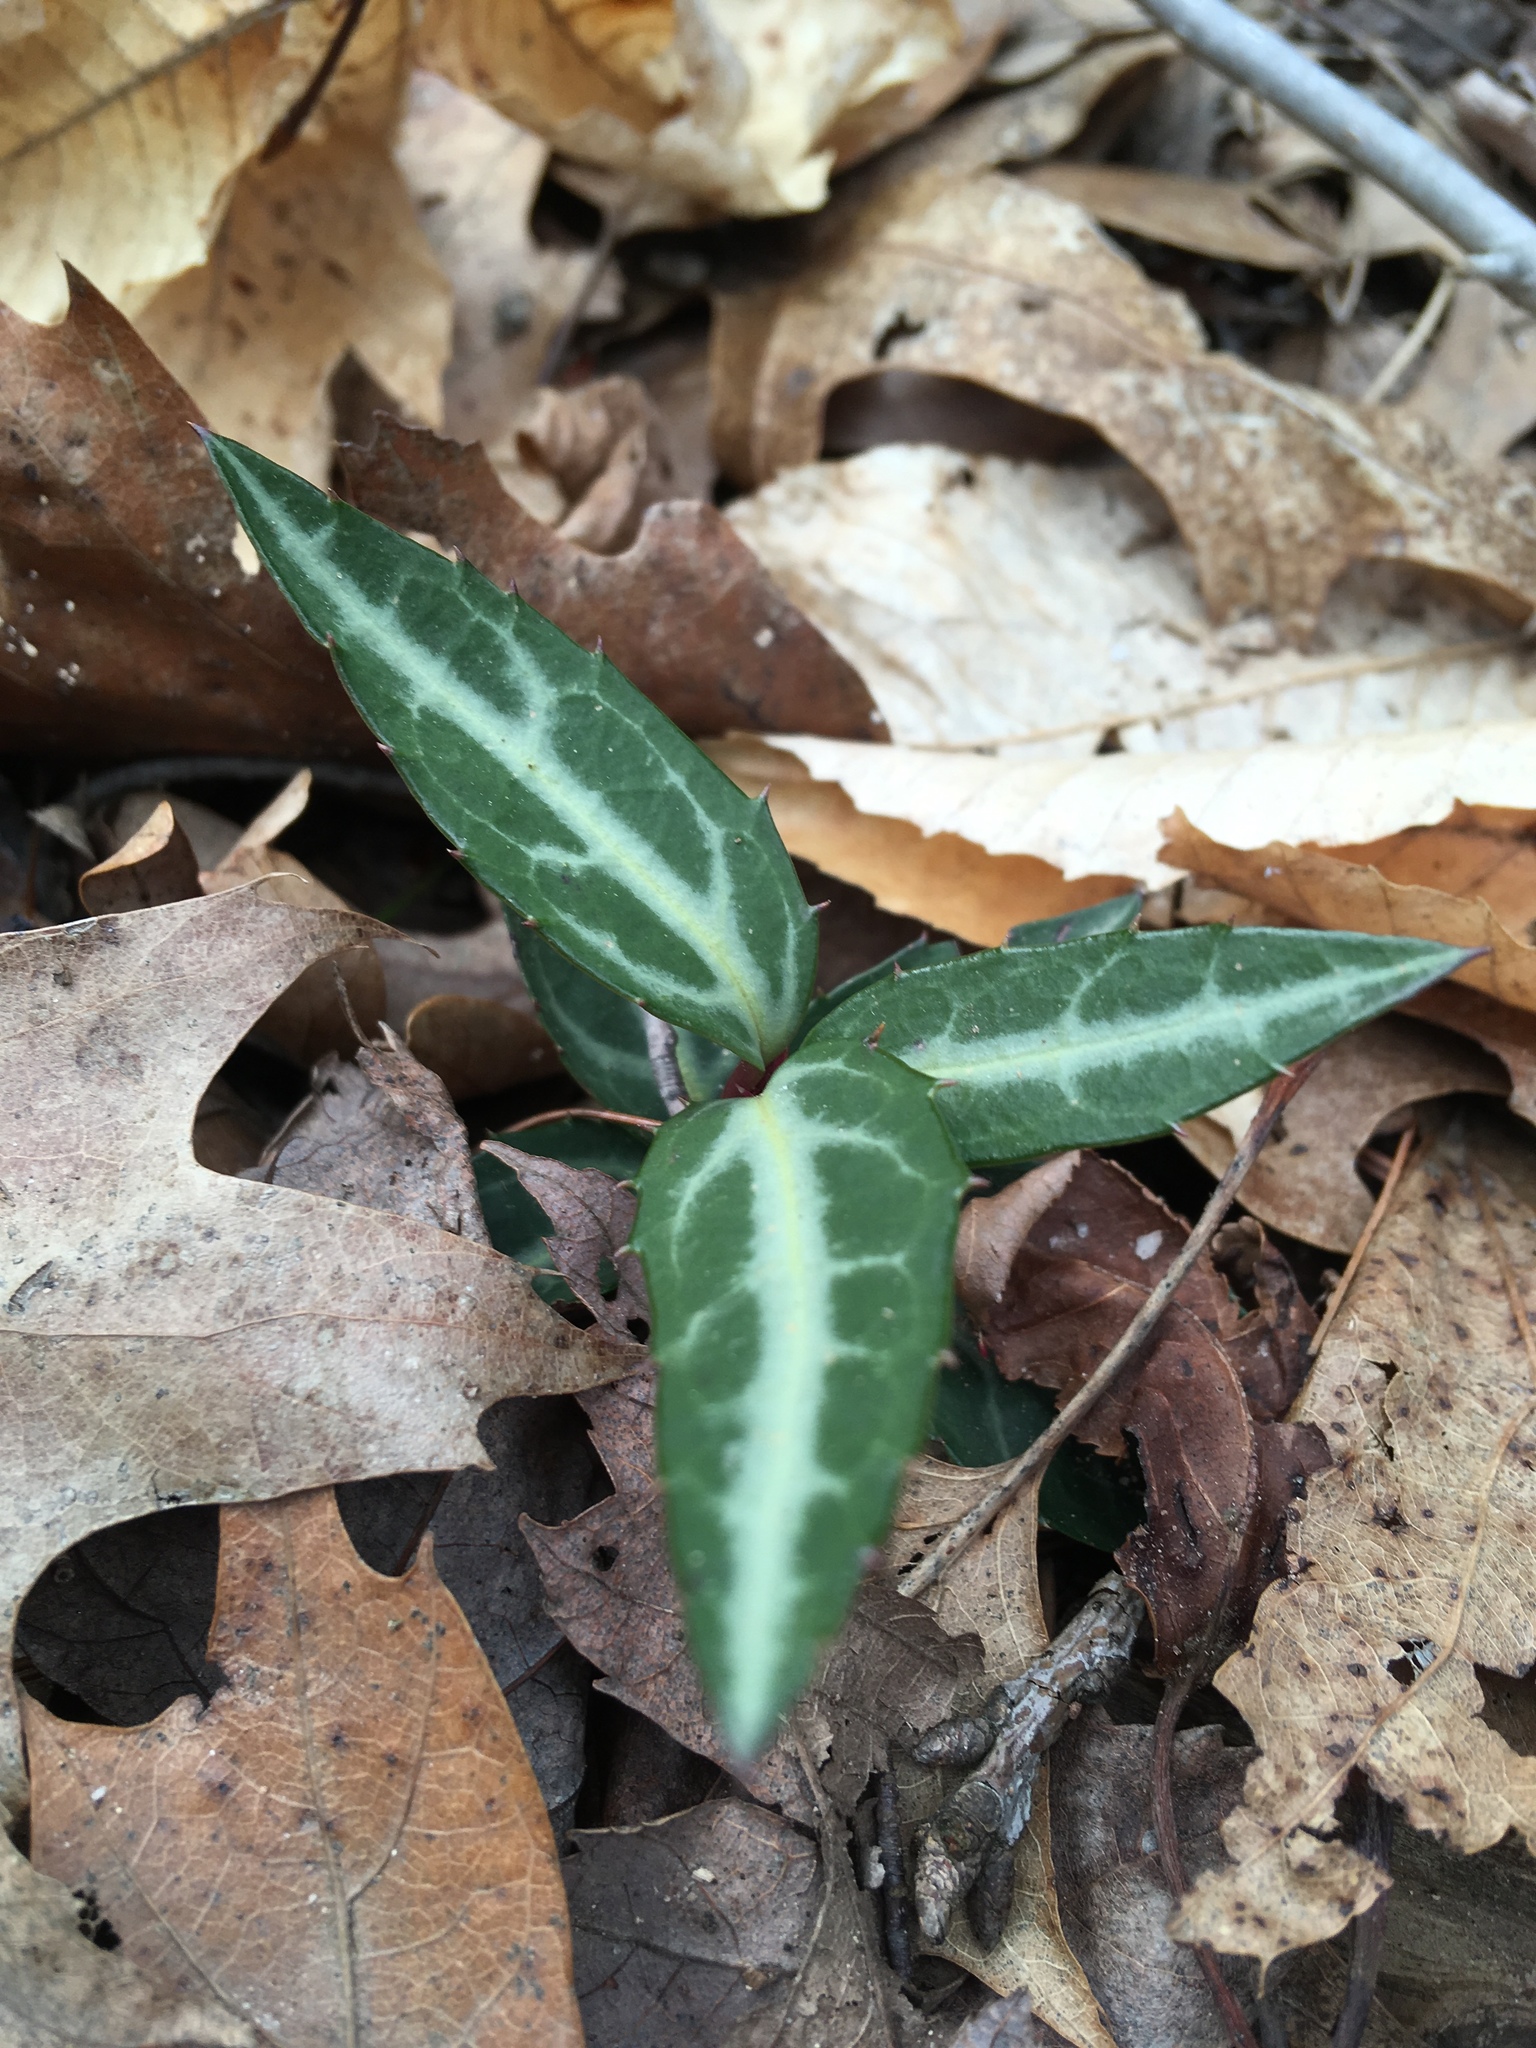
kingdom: Plantae
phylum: Tracheophyta
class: Magnoliopsida
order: Ericales
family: Ericaceae
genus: Chimaphila
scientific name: Chimaphila maculata
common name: Spotted pipsissewa
